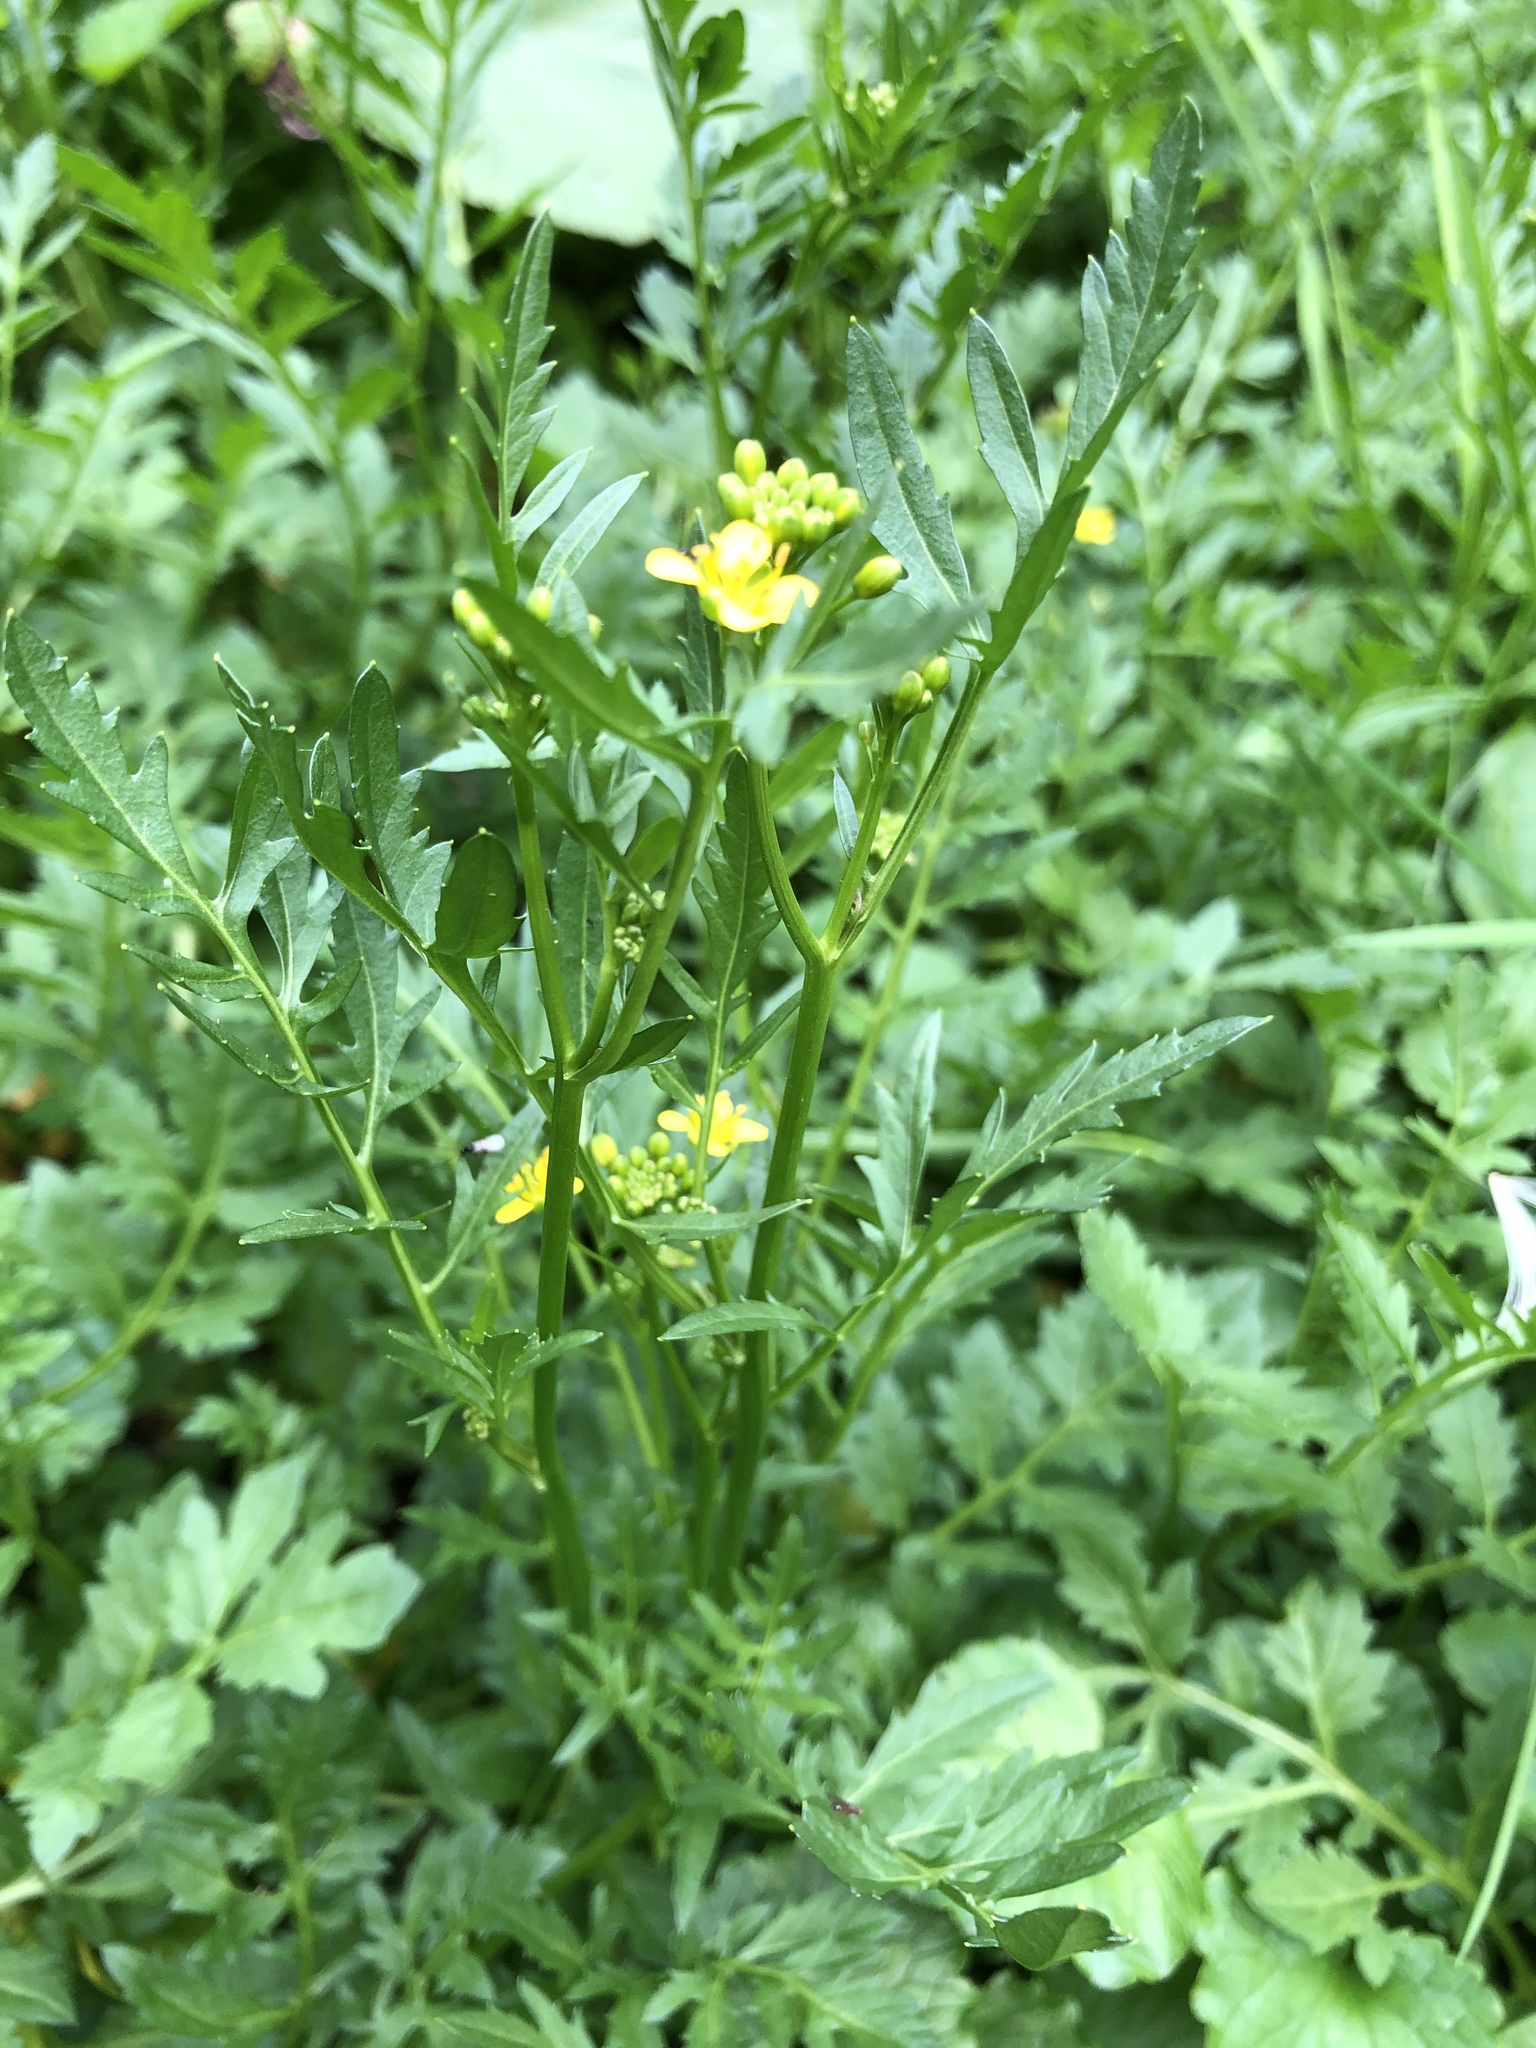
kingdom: Plantae
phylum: Tracheophyta
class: Magnoliopsida
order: Brassicales
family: Brassicaceae
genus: Rorippa
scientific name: Rorippa sylvestris
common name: Creeping yellowcress
